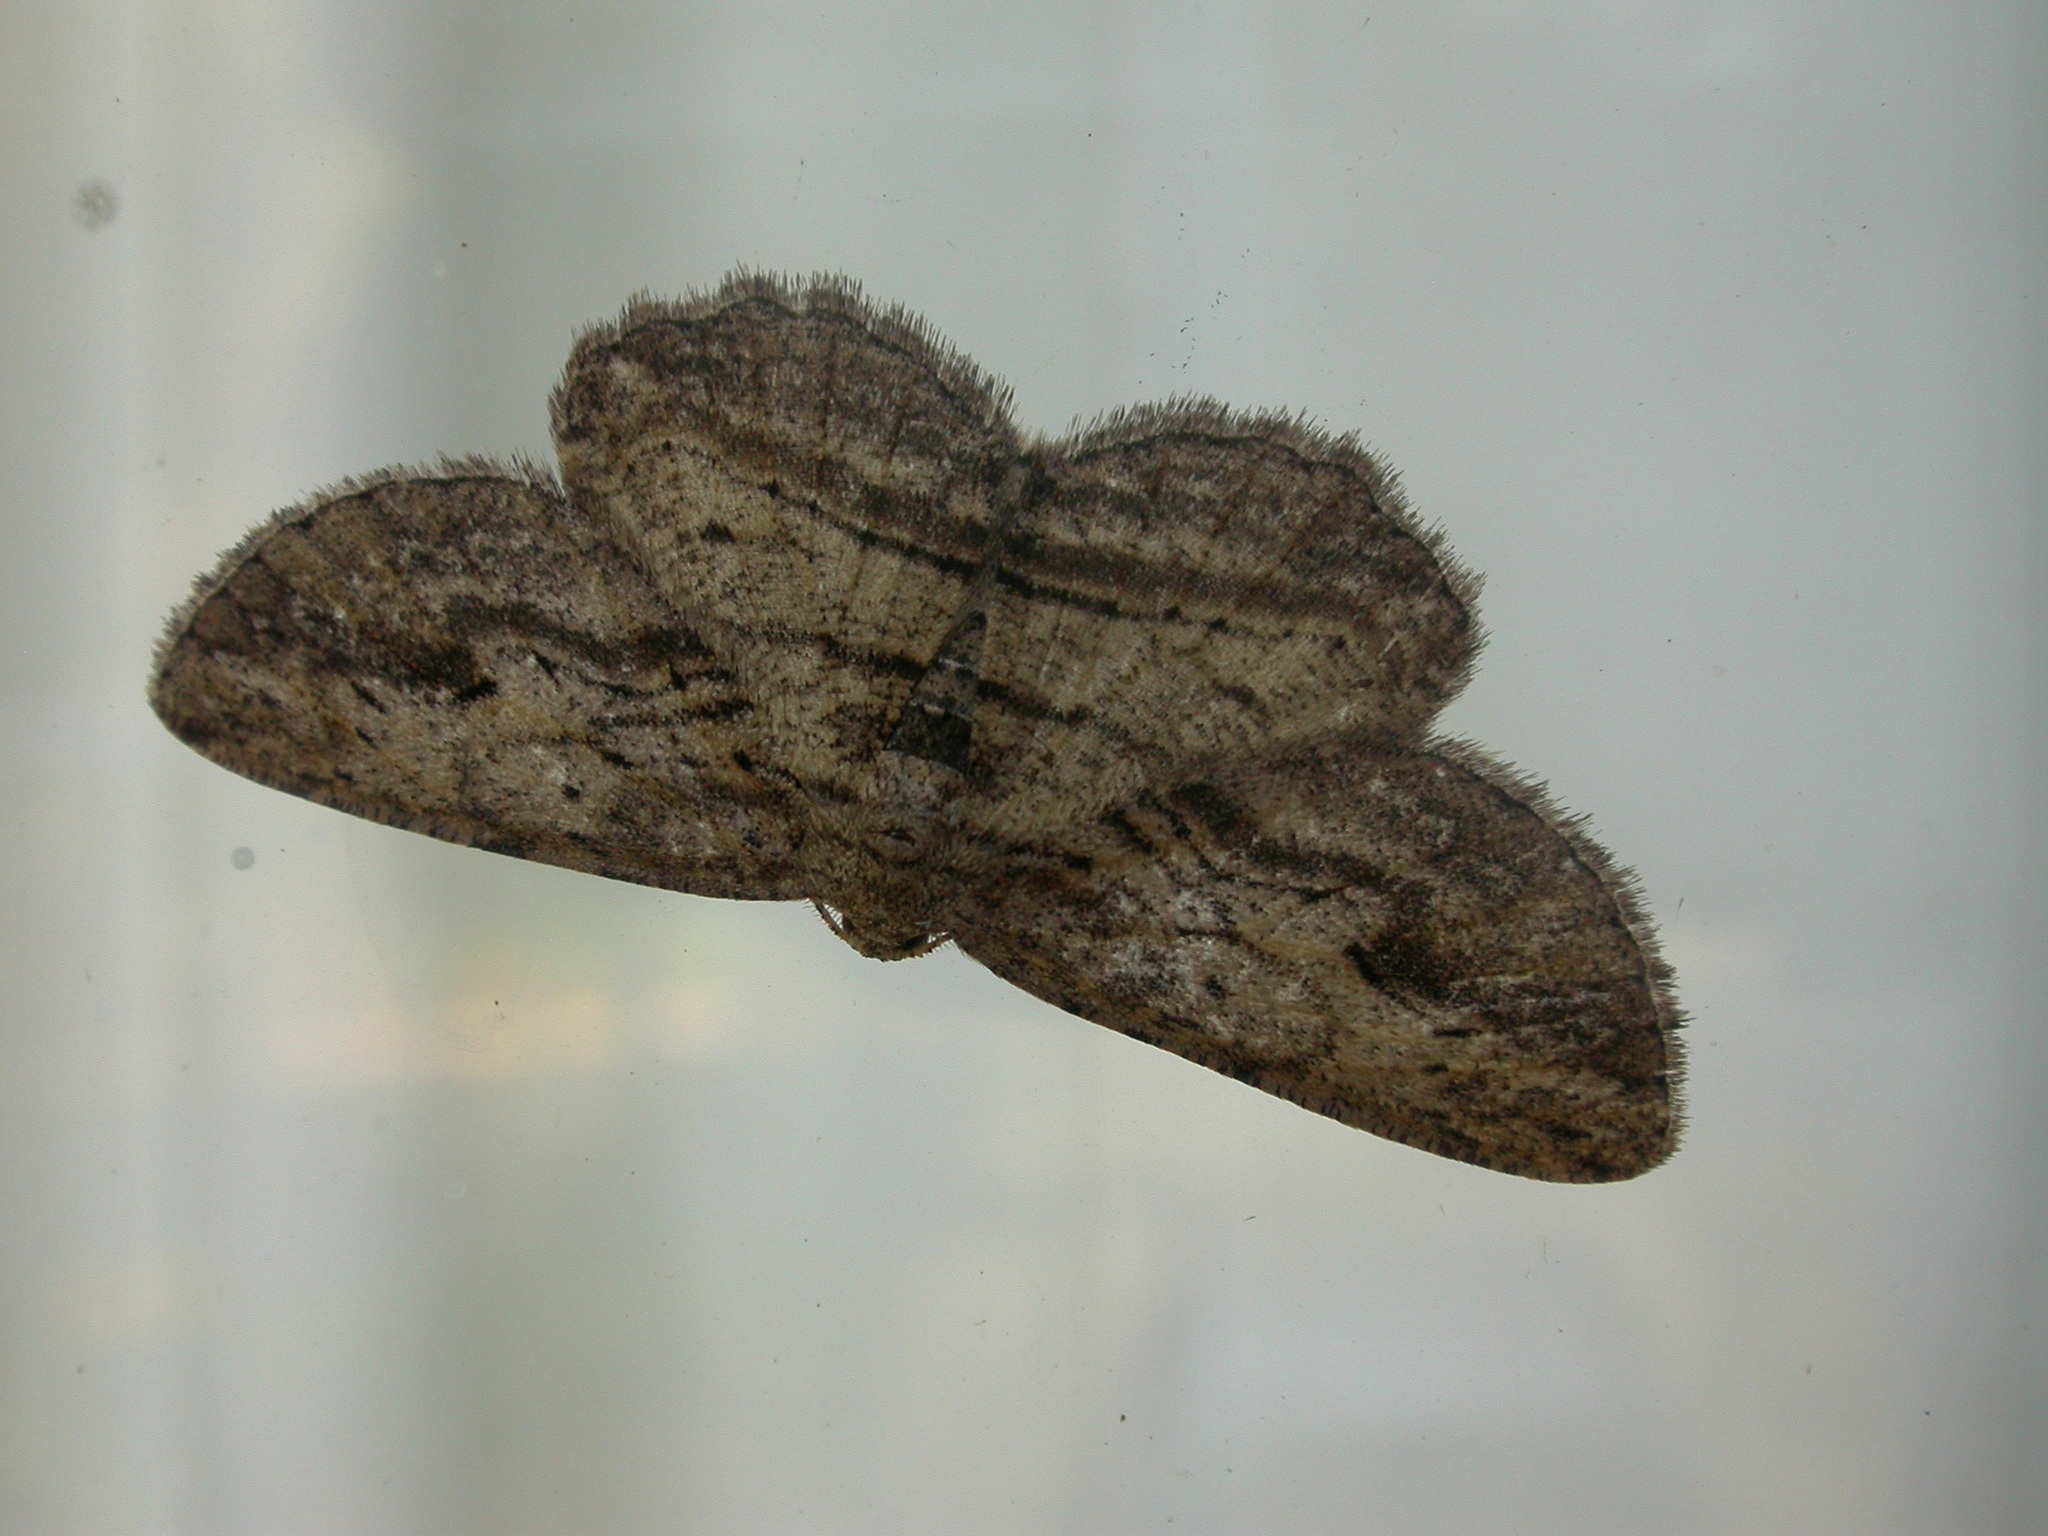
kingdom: Animalia
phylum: Arthropoda
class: Insecta
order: Lepidoptera
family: Geometridae
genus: Ectropis
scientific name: Ectropis excursaria
